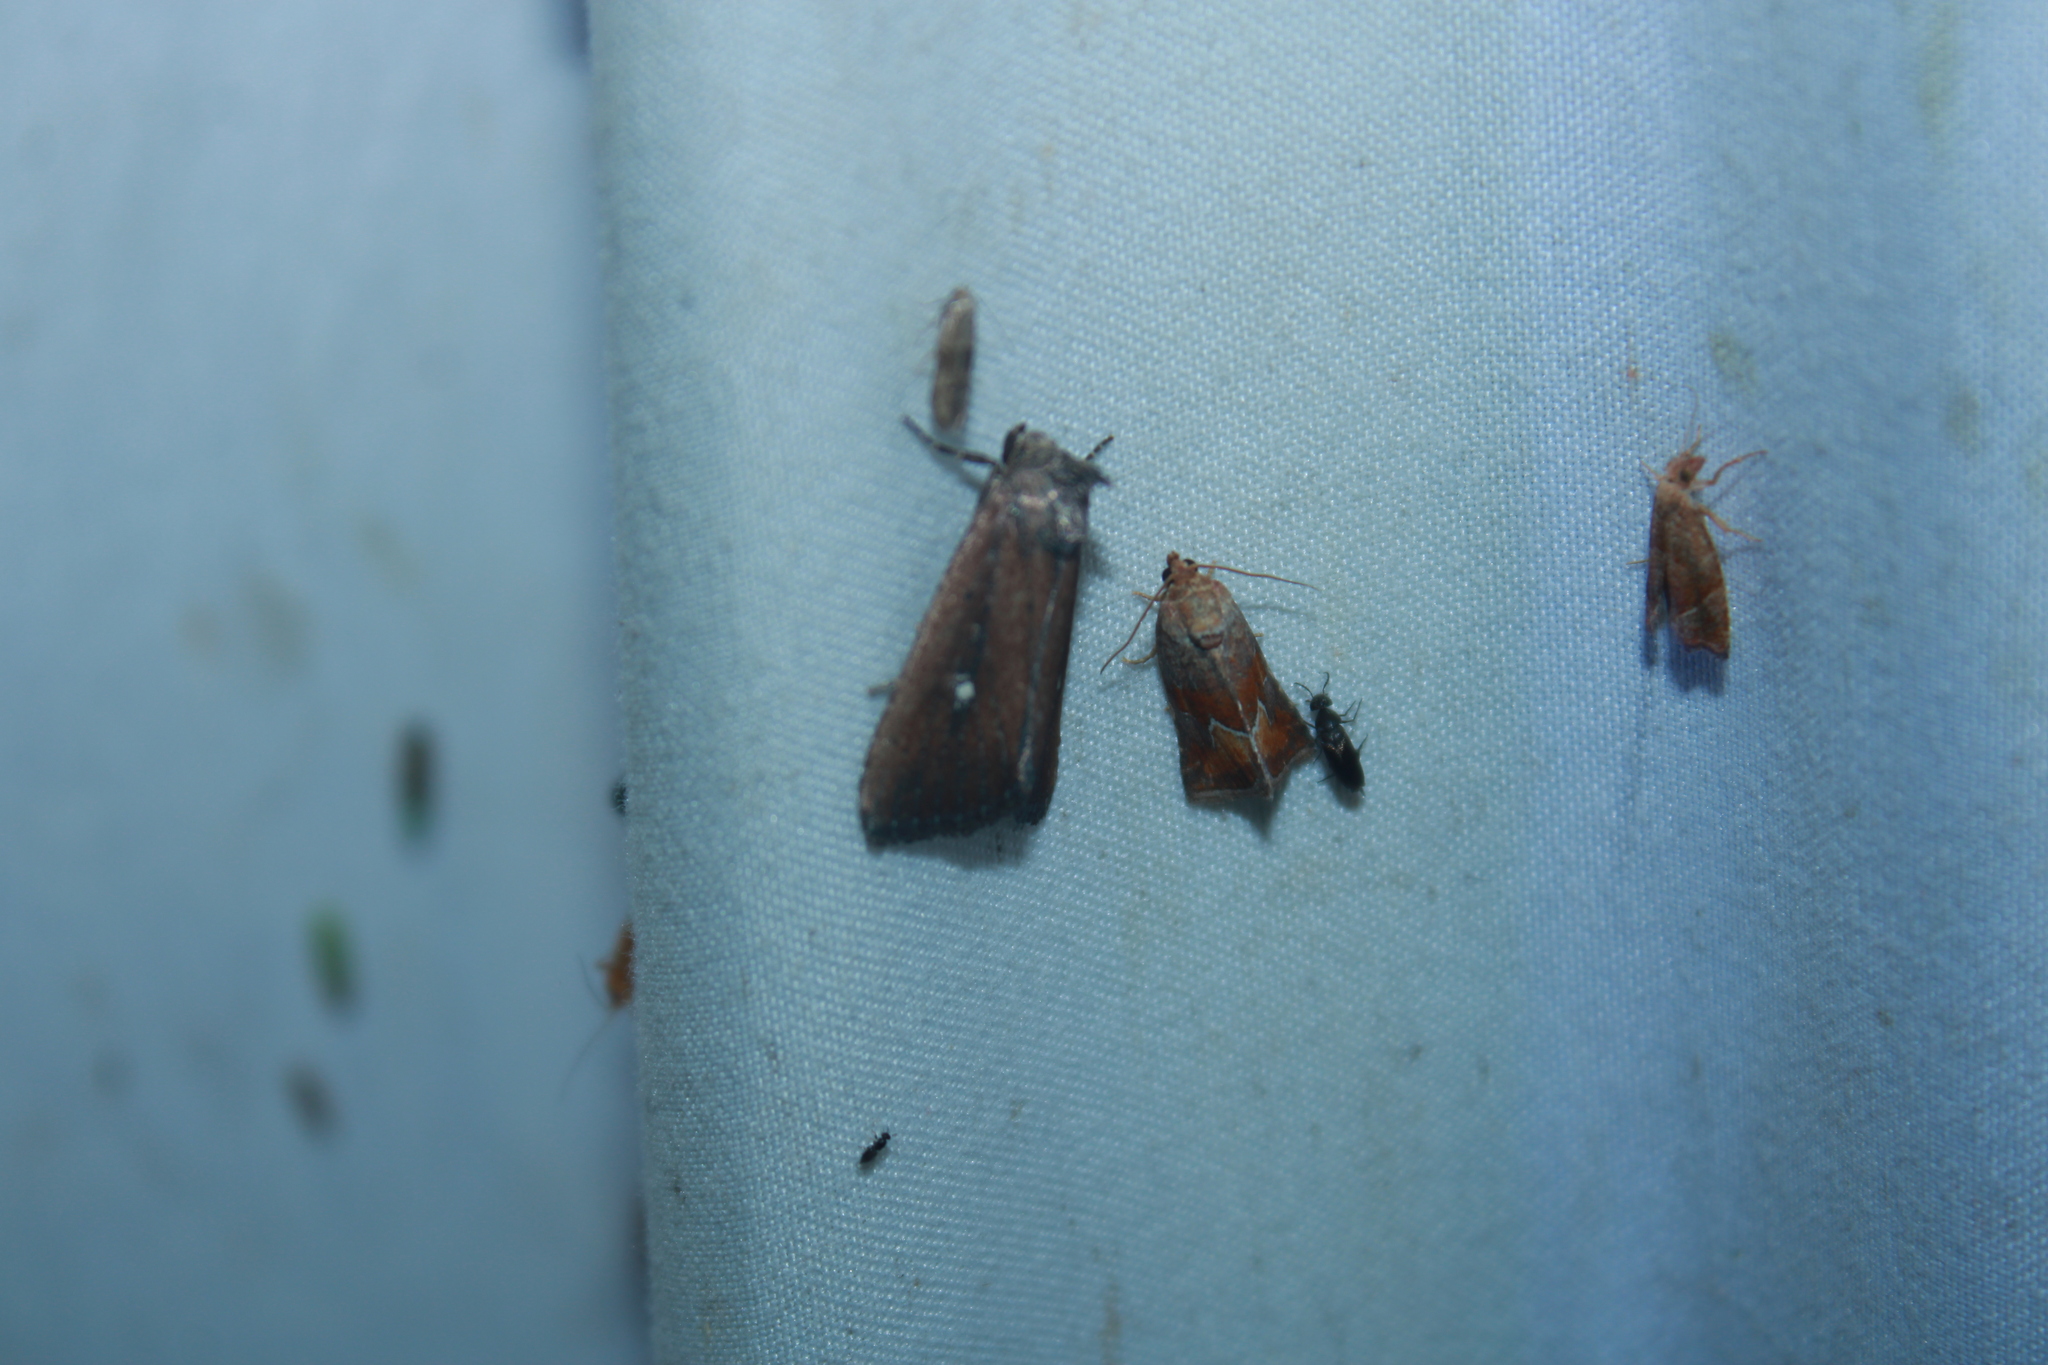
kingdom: Animalia
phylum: Arthropoda
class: Insecta
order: Lepidoptera
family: Noctuidae
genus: Condica
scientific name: Condica videns
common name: White-dotted groundling
